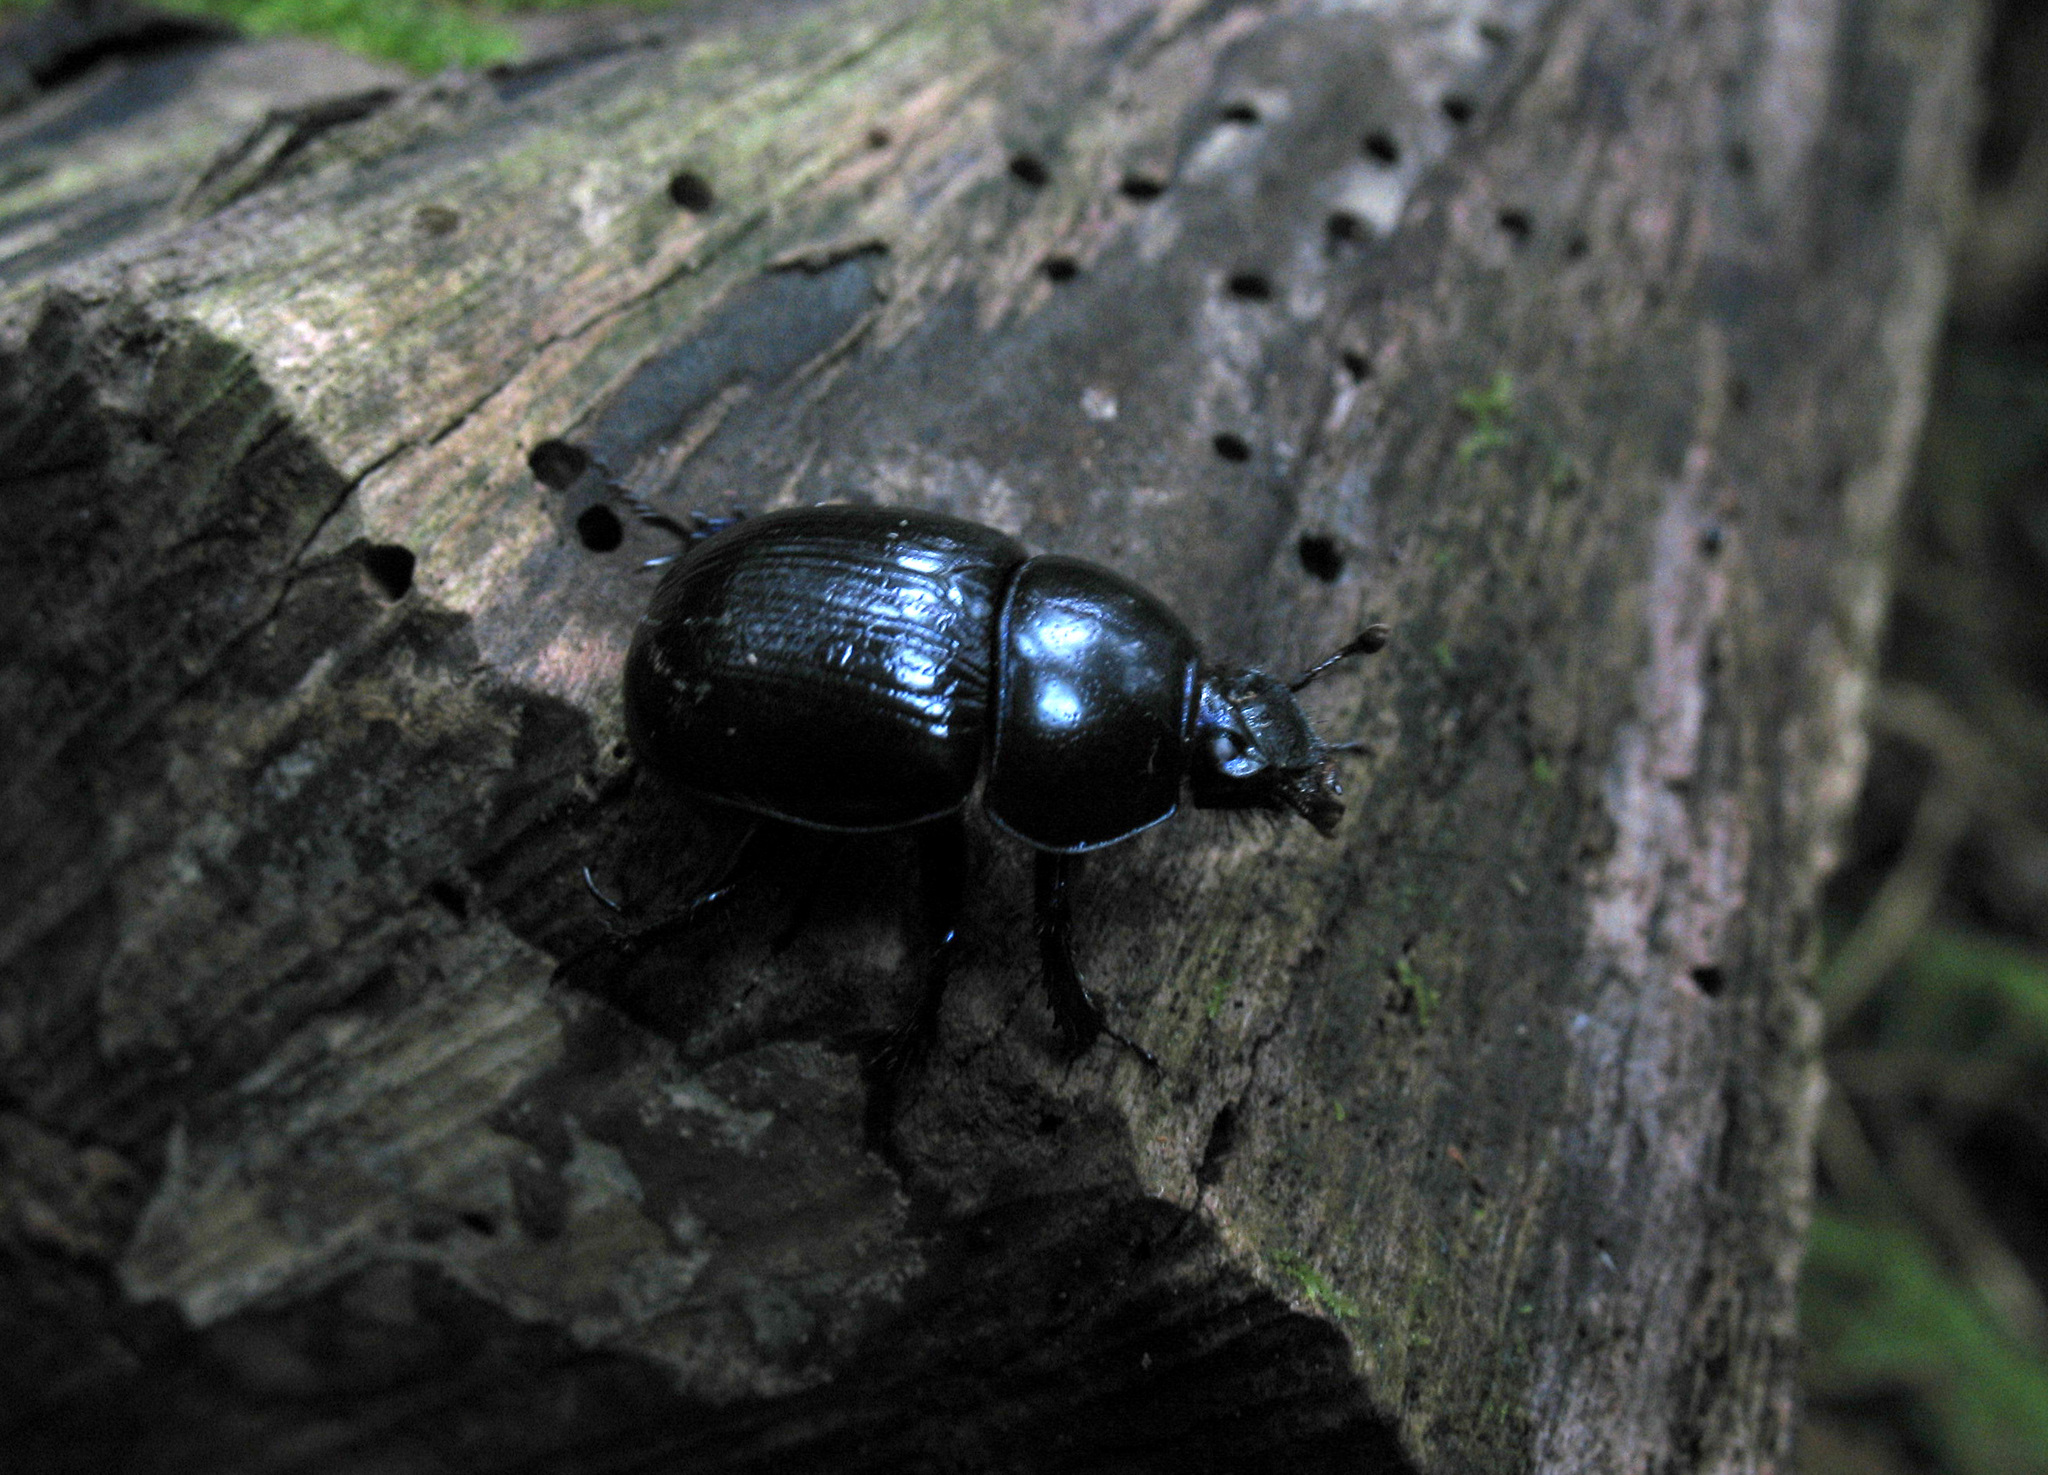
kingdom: Animalia
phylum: Arthropoda
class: Insecta
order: Coleoptera
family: Geotrupidae
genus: Anoplotrupes
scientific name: Anoplotrupes stercorosus
